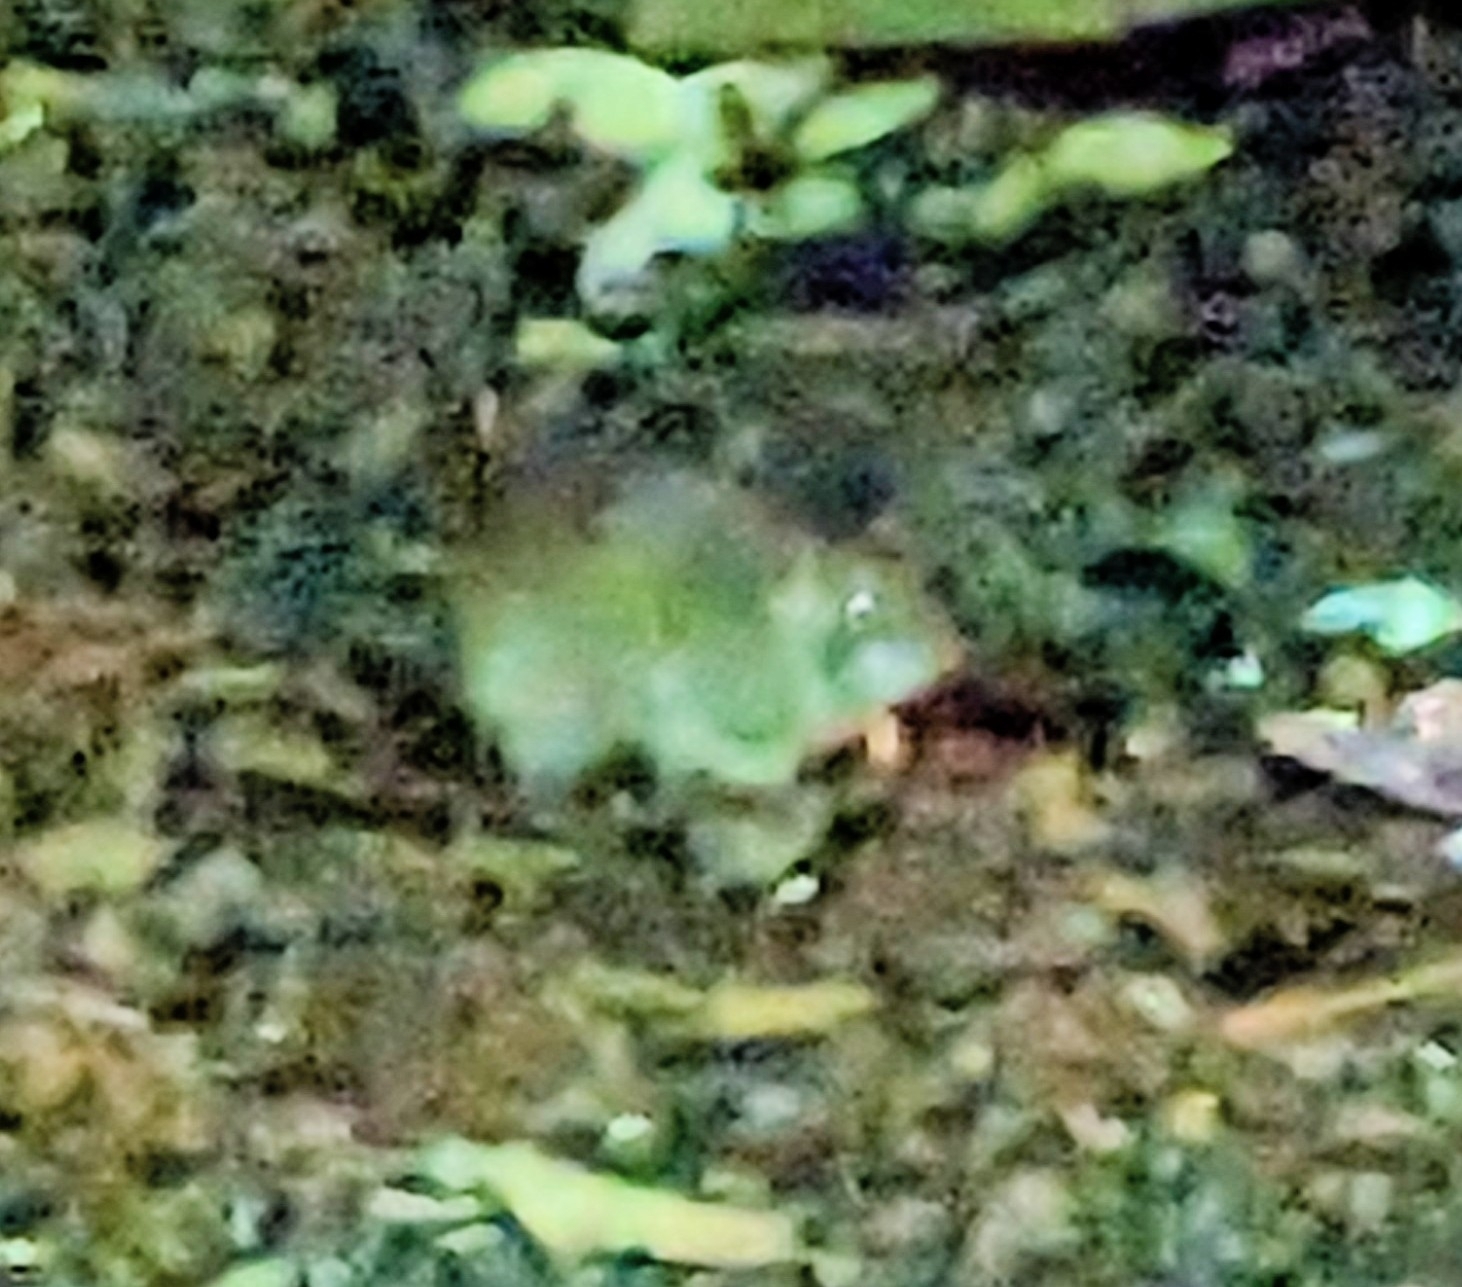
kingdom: Animalia
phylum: Chordata
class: Mammalia
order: Rodentia
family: Muridae
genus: Rattus
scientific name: Rattus norvegicus
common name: Brown rat
